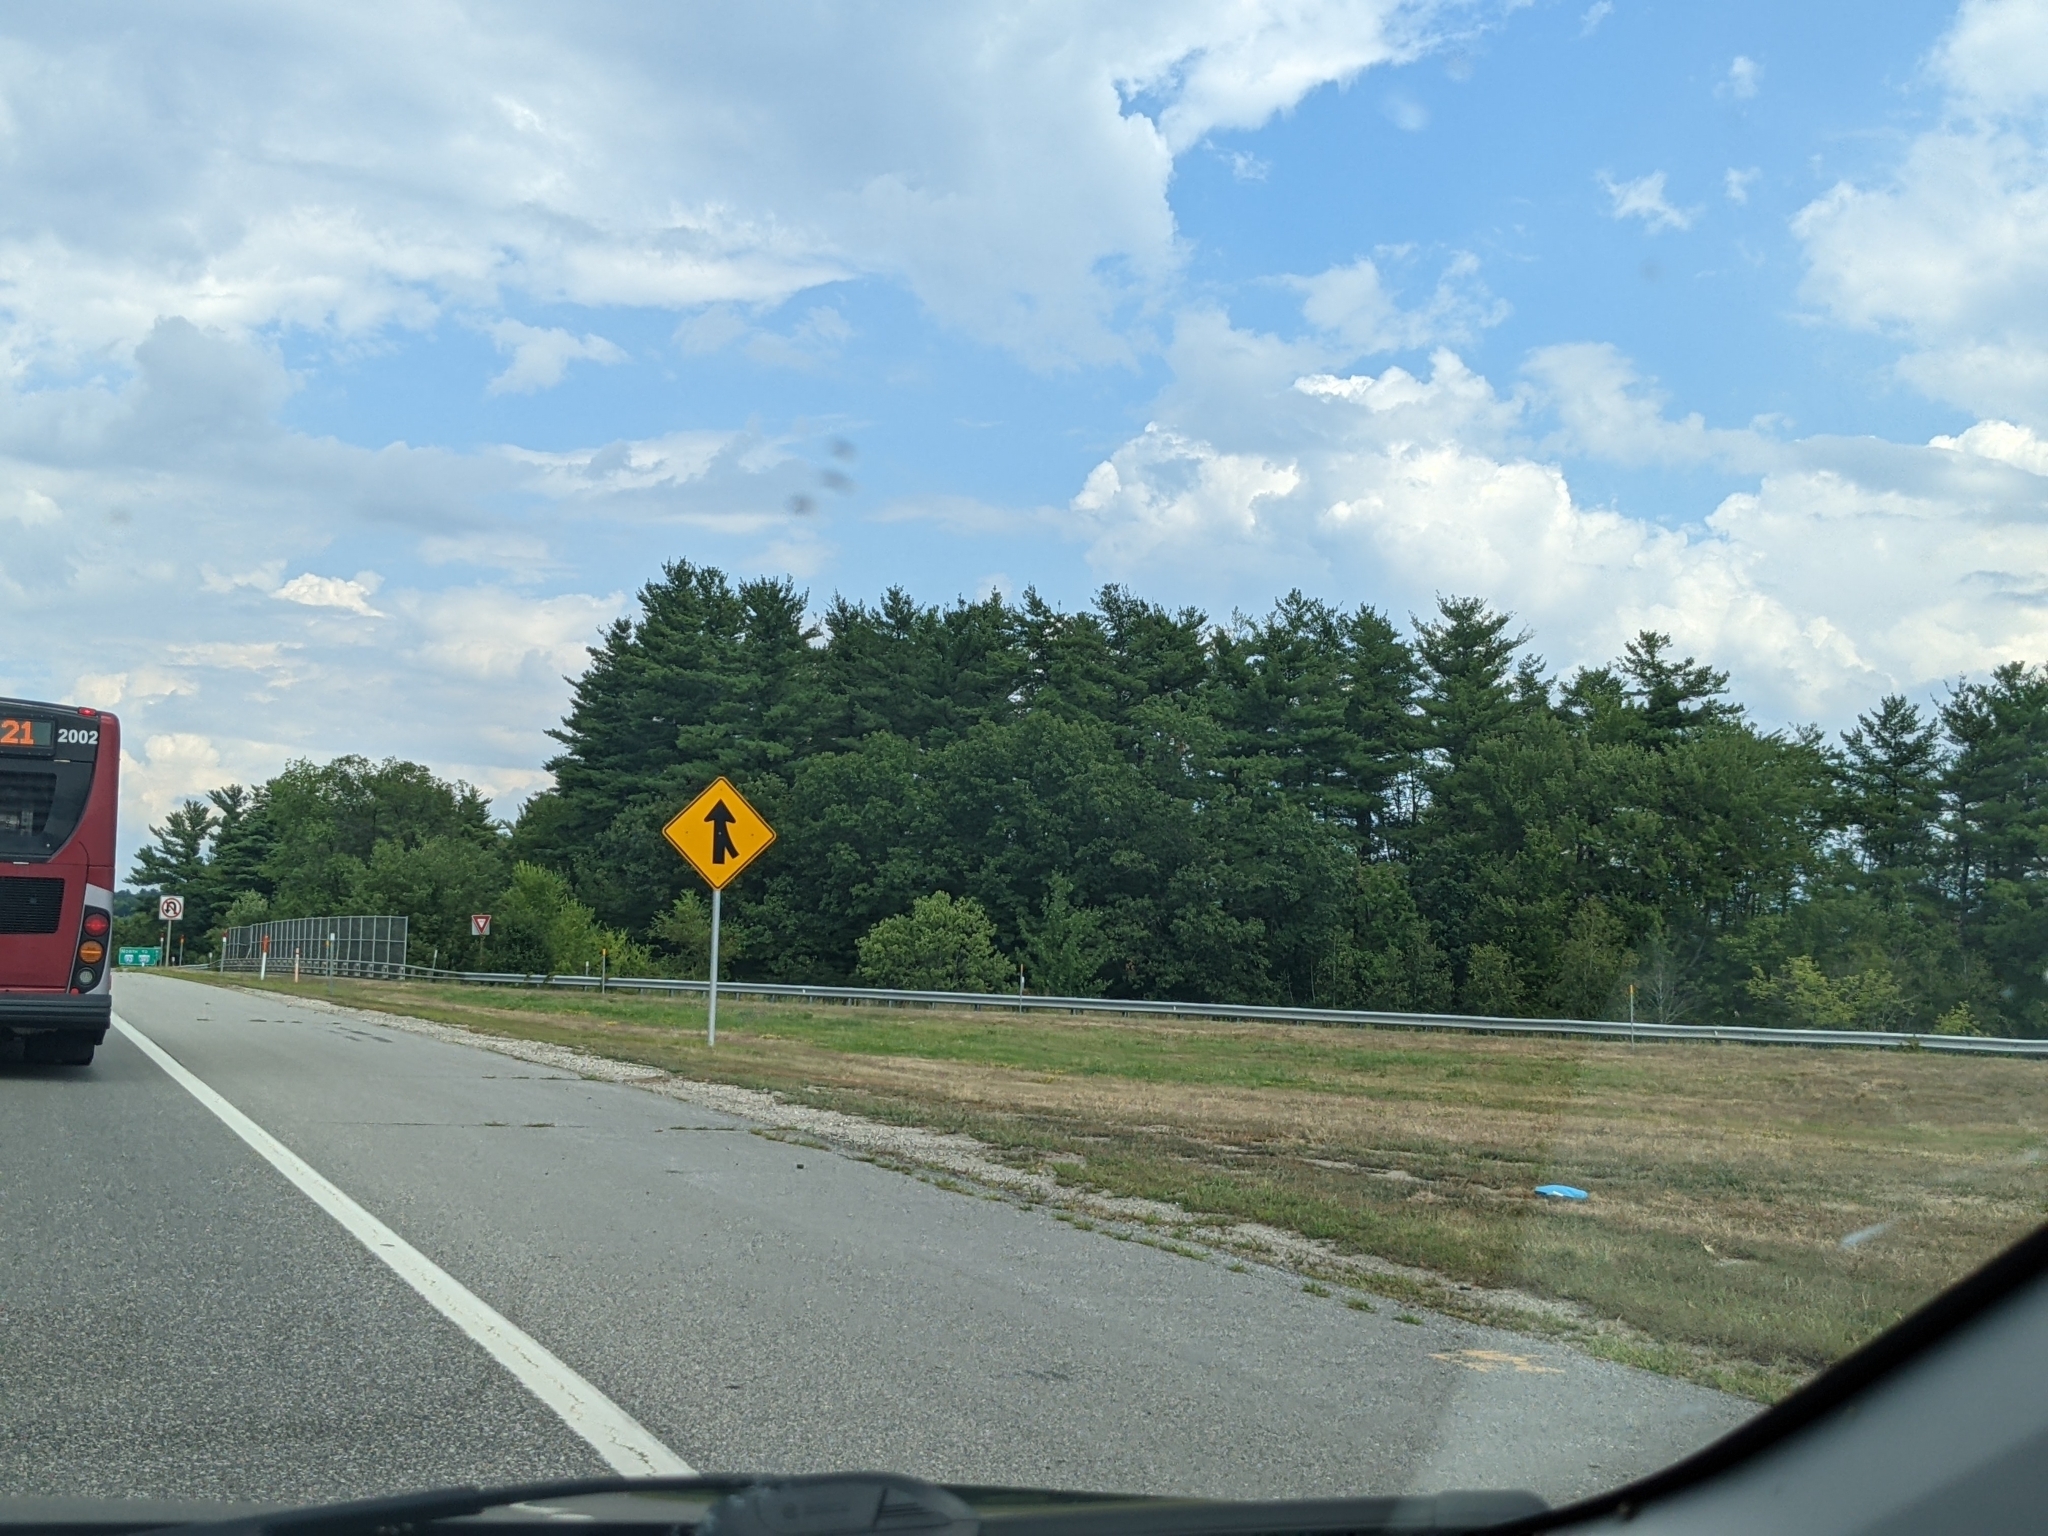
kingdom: Plantae
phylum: Tracheophyta
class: Pinopsida
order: Pinales
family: Pinaceae
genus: Pinus
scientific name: Pinus strobus
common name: Weymouth pine
